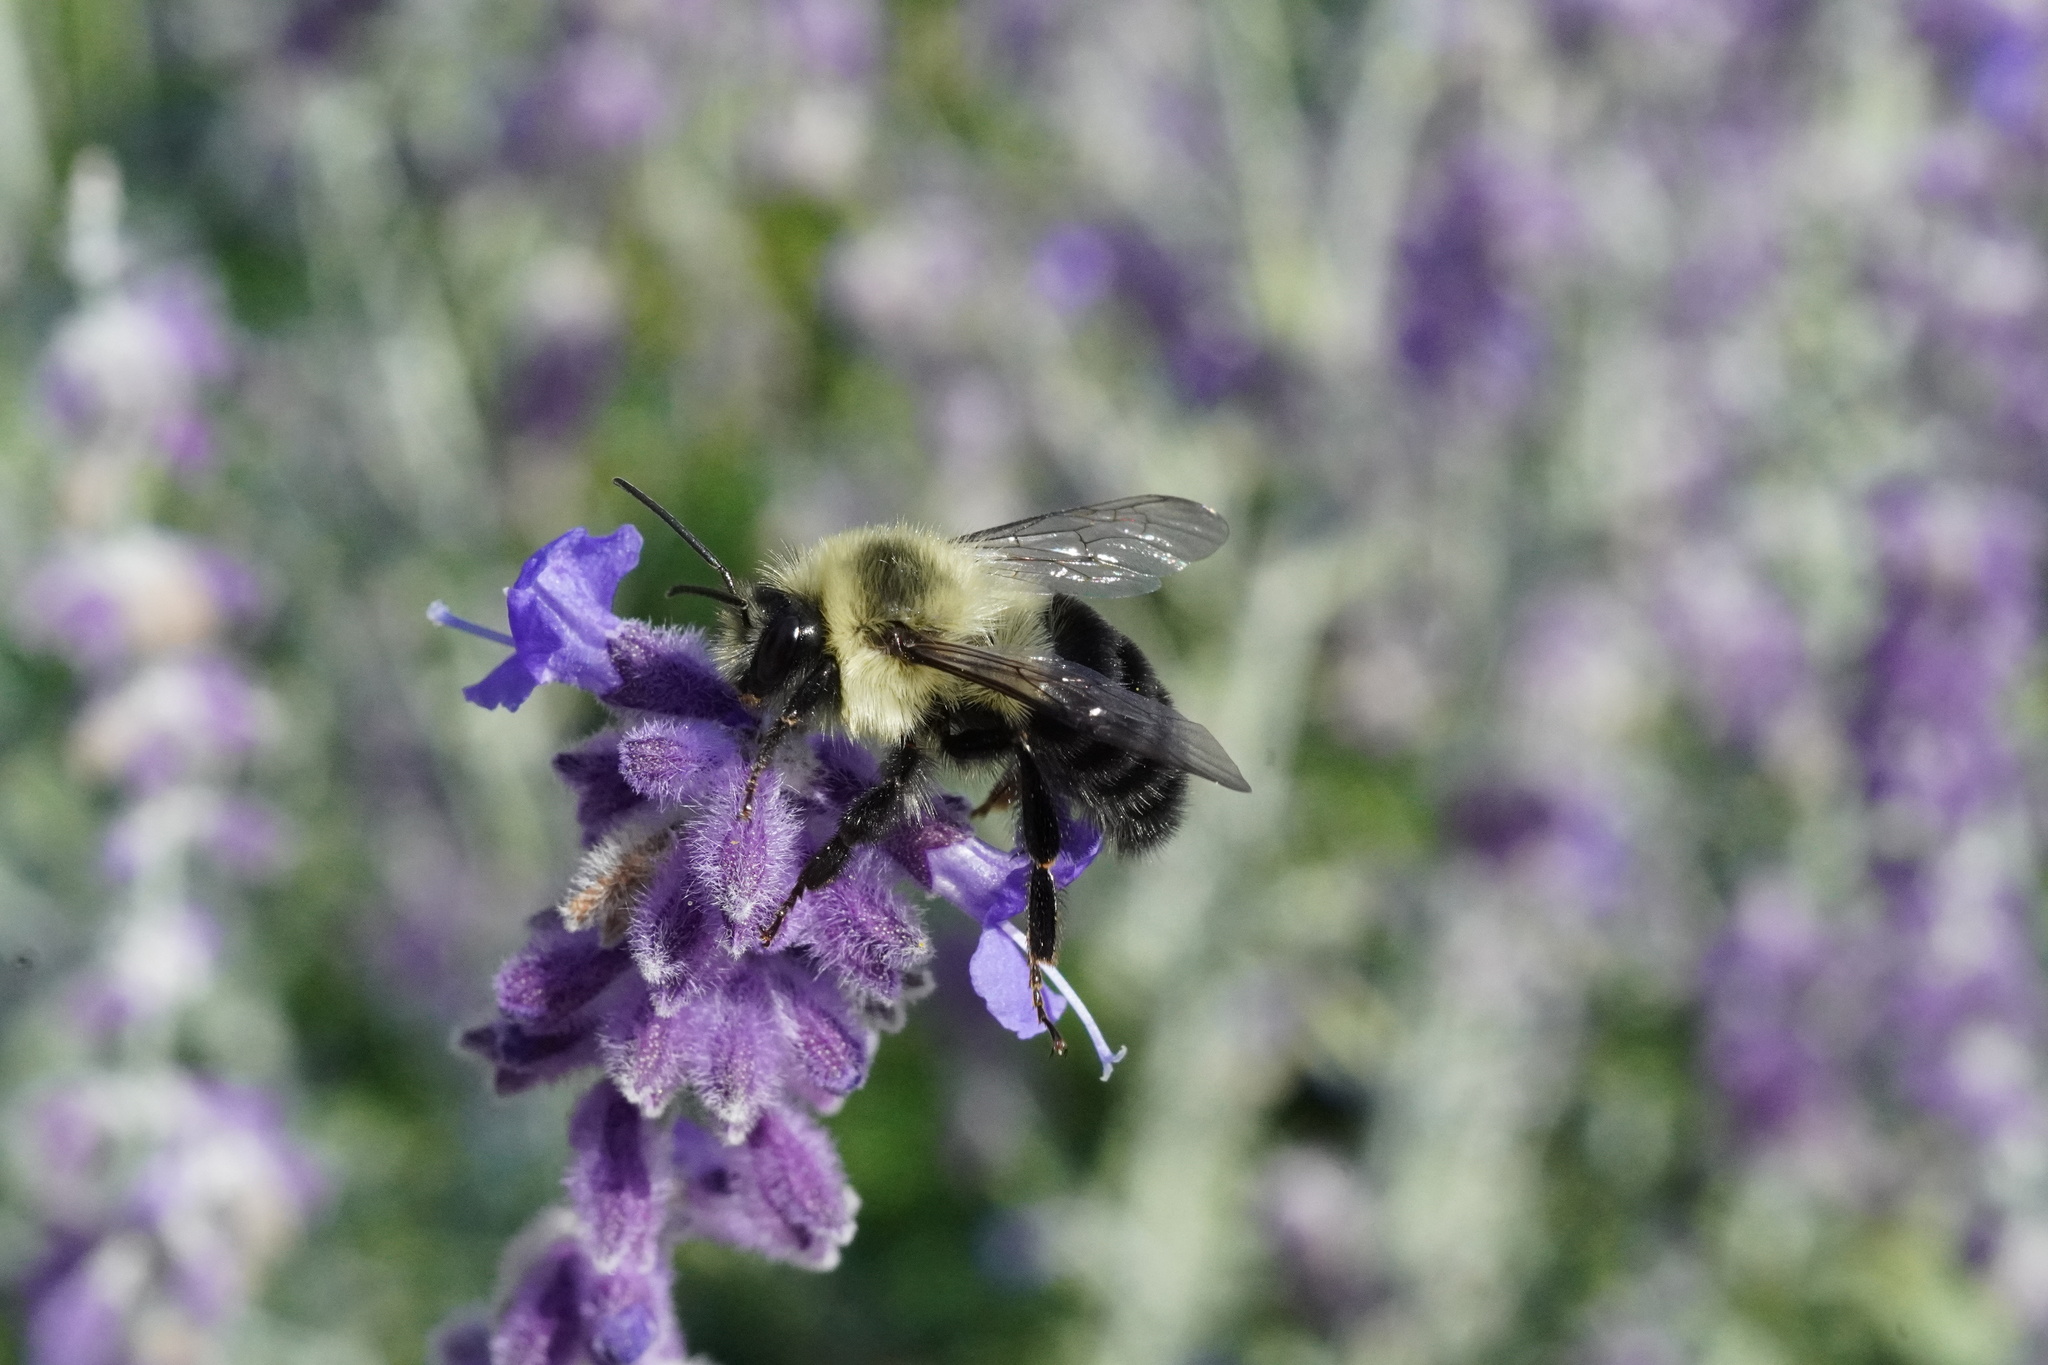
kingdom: Animalia
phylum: Arthropoda
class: Insecta
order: Hymenoptera
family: Apidae
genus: Bombus
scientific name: Bombus impatiens
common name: Common eastern bumble bee
